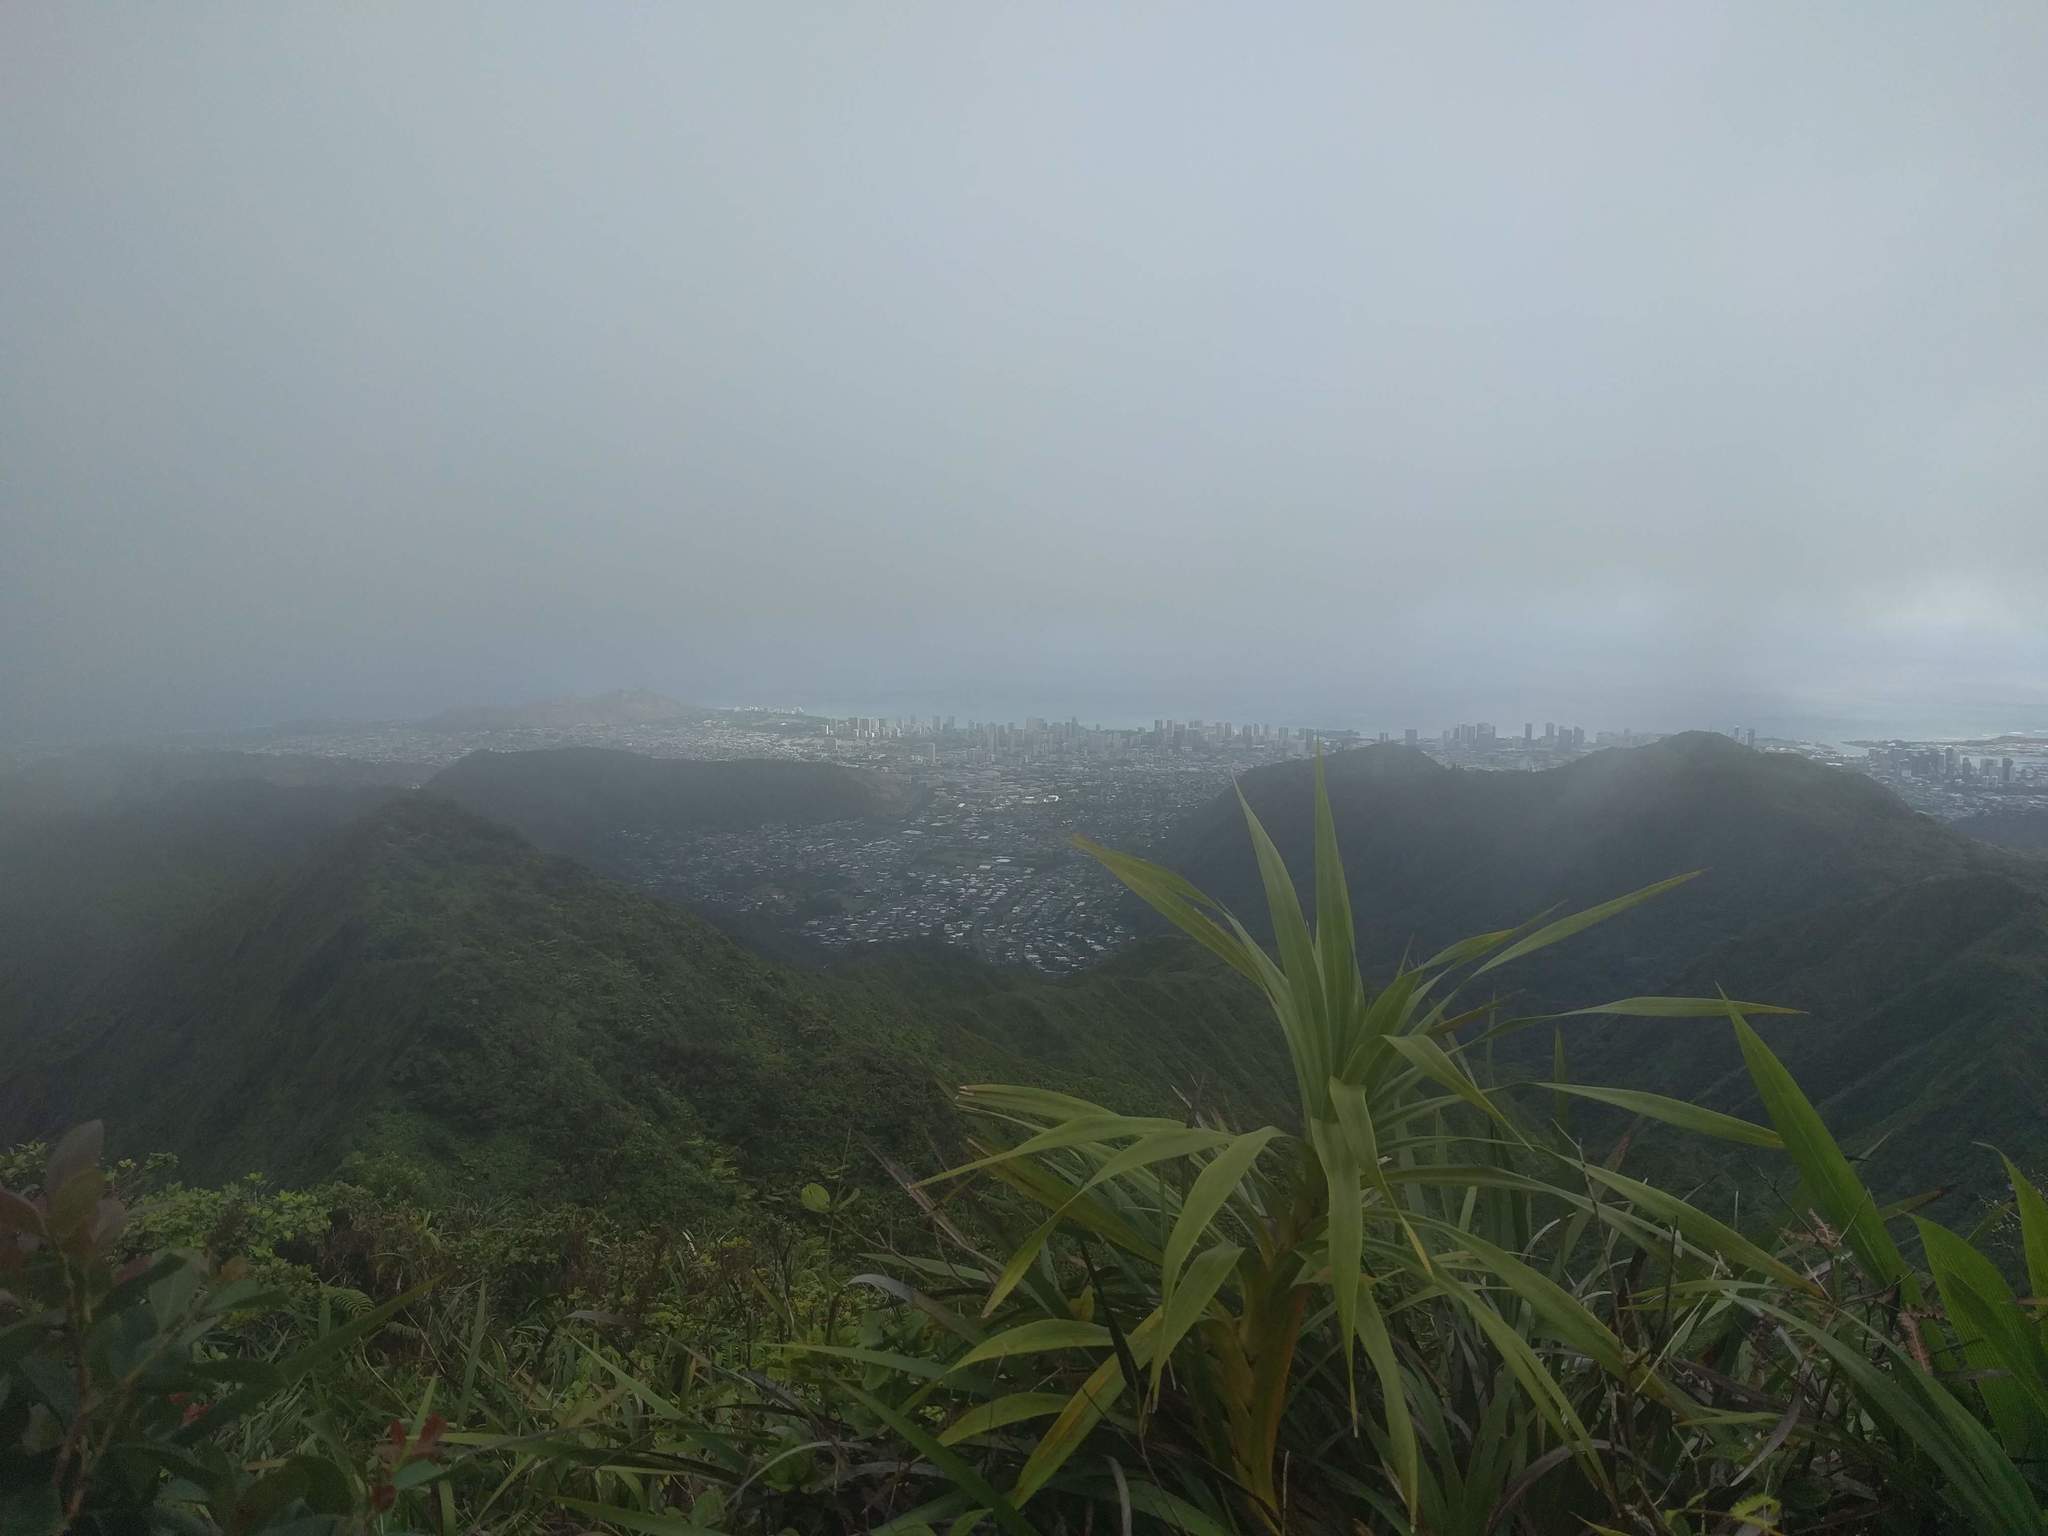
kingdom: Plantae
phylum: Tracheophyta
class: Liliopsida
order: Pandanales
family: Pandanaceae
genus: Freycinetia
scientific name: Freycinetia arborea
